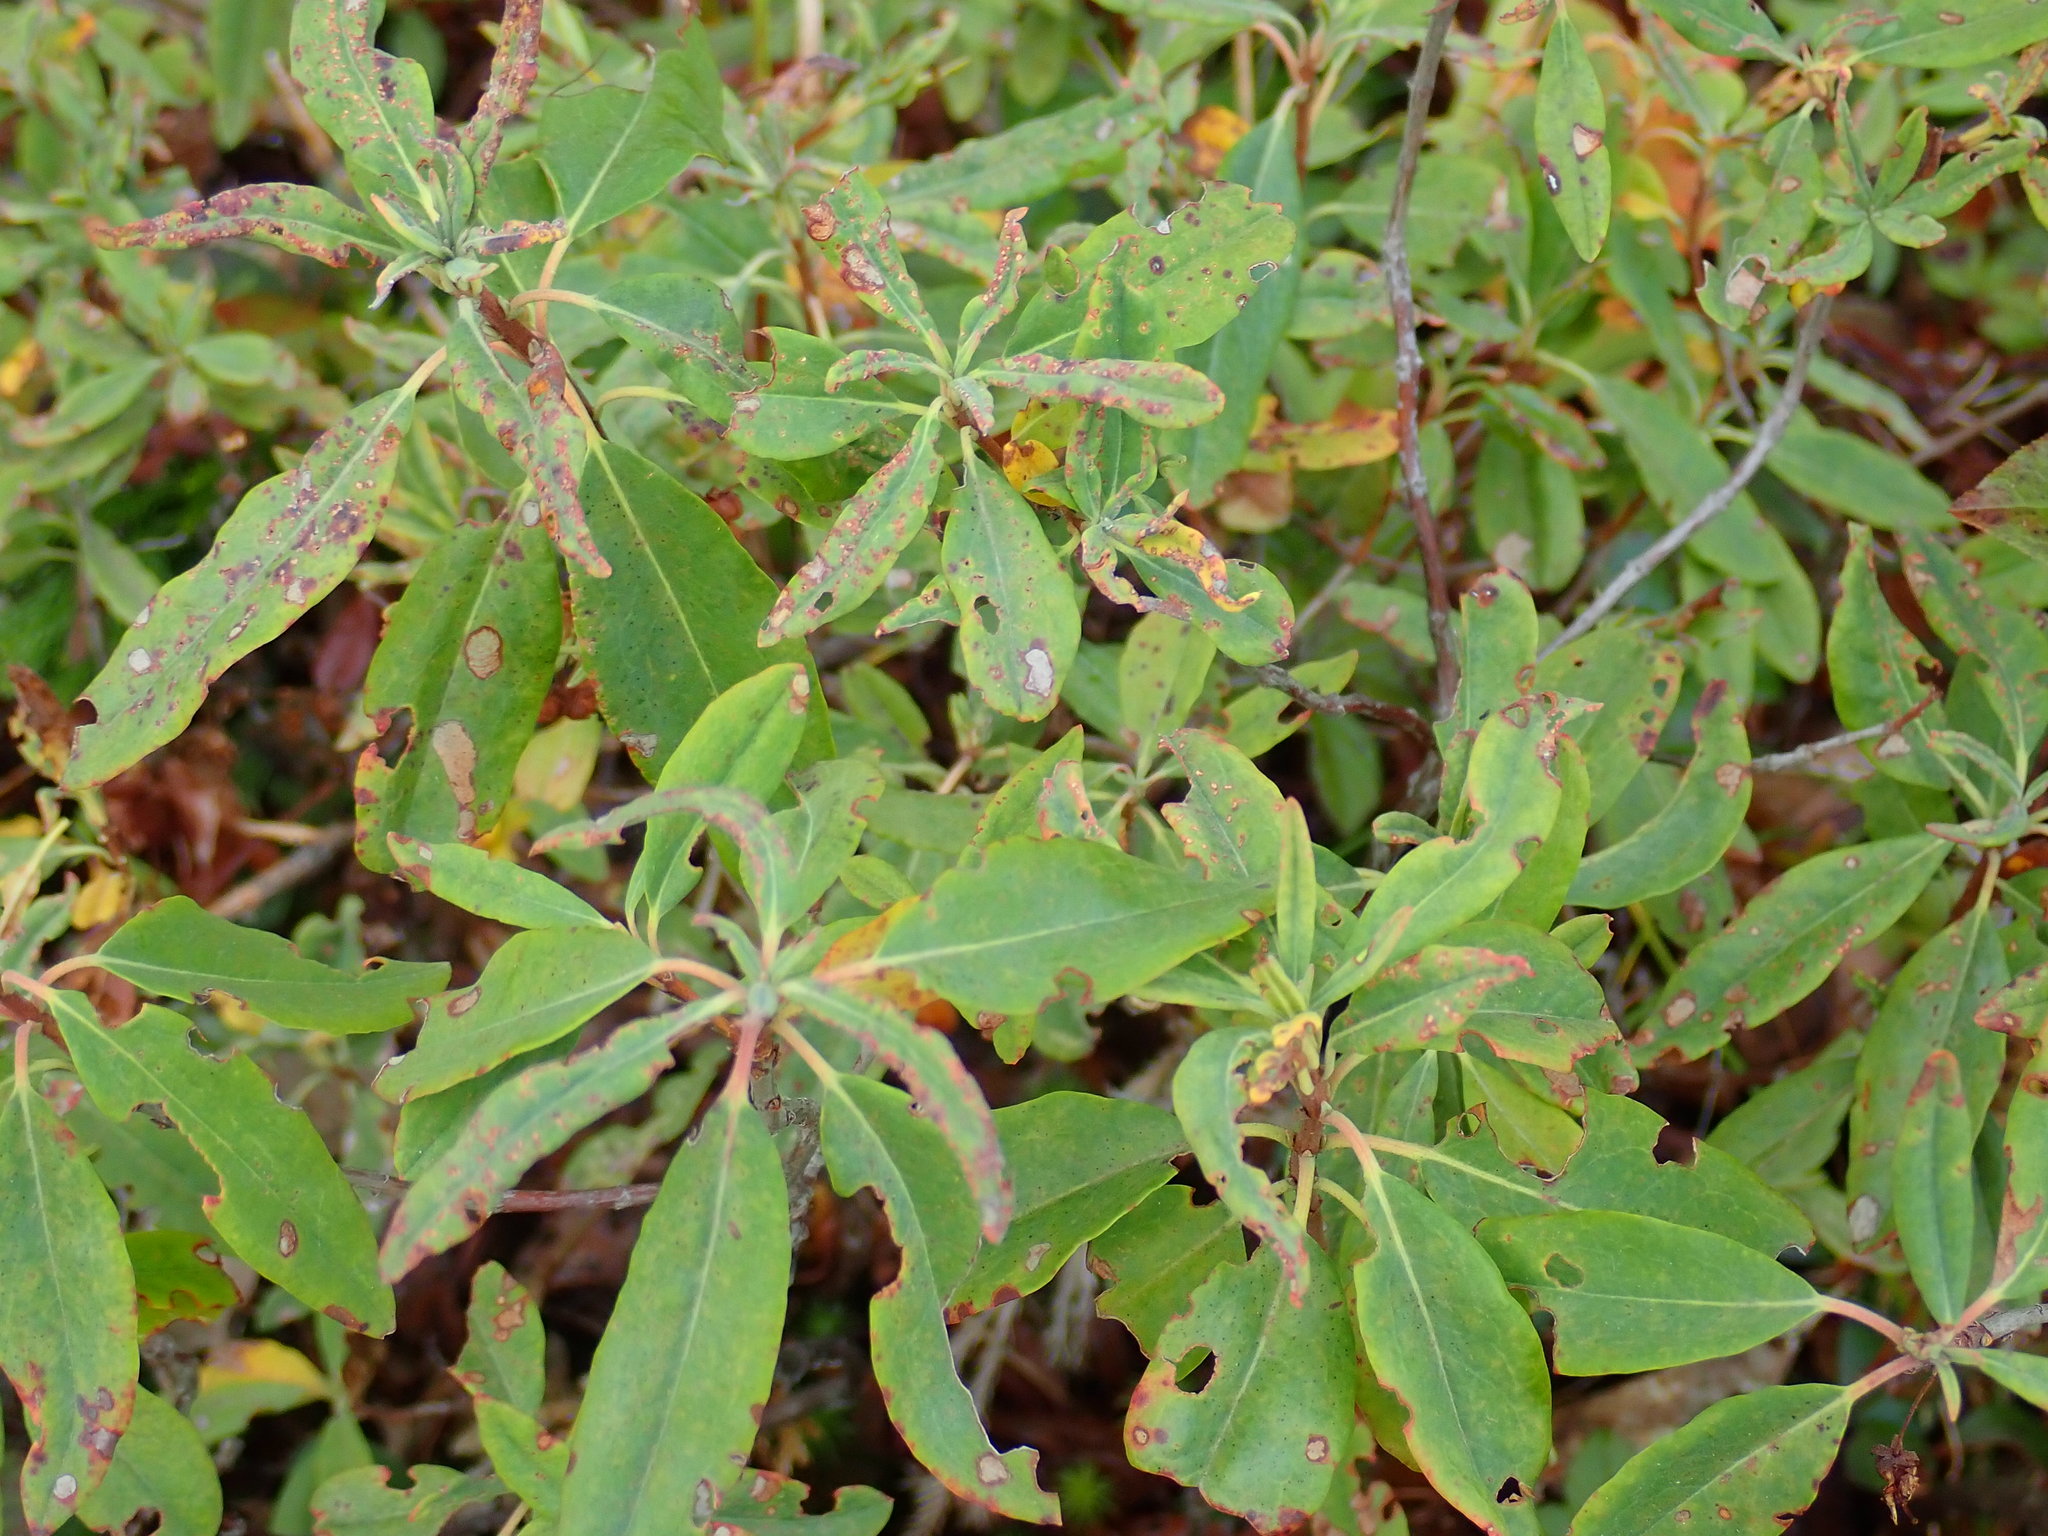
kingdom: Plantae
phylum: Tracheophyta
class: Magnoliopsida
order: Ericales
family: Ericaceae
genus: Kalmia
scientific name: Kalmia angustifolia
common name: Sheep-laurel
